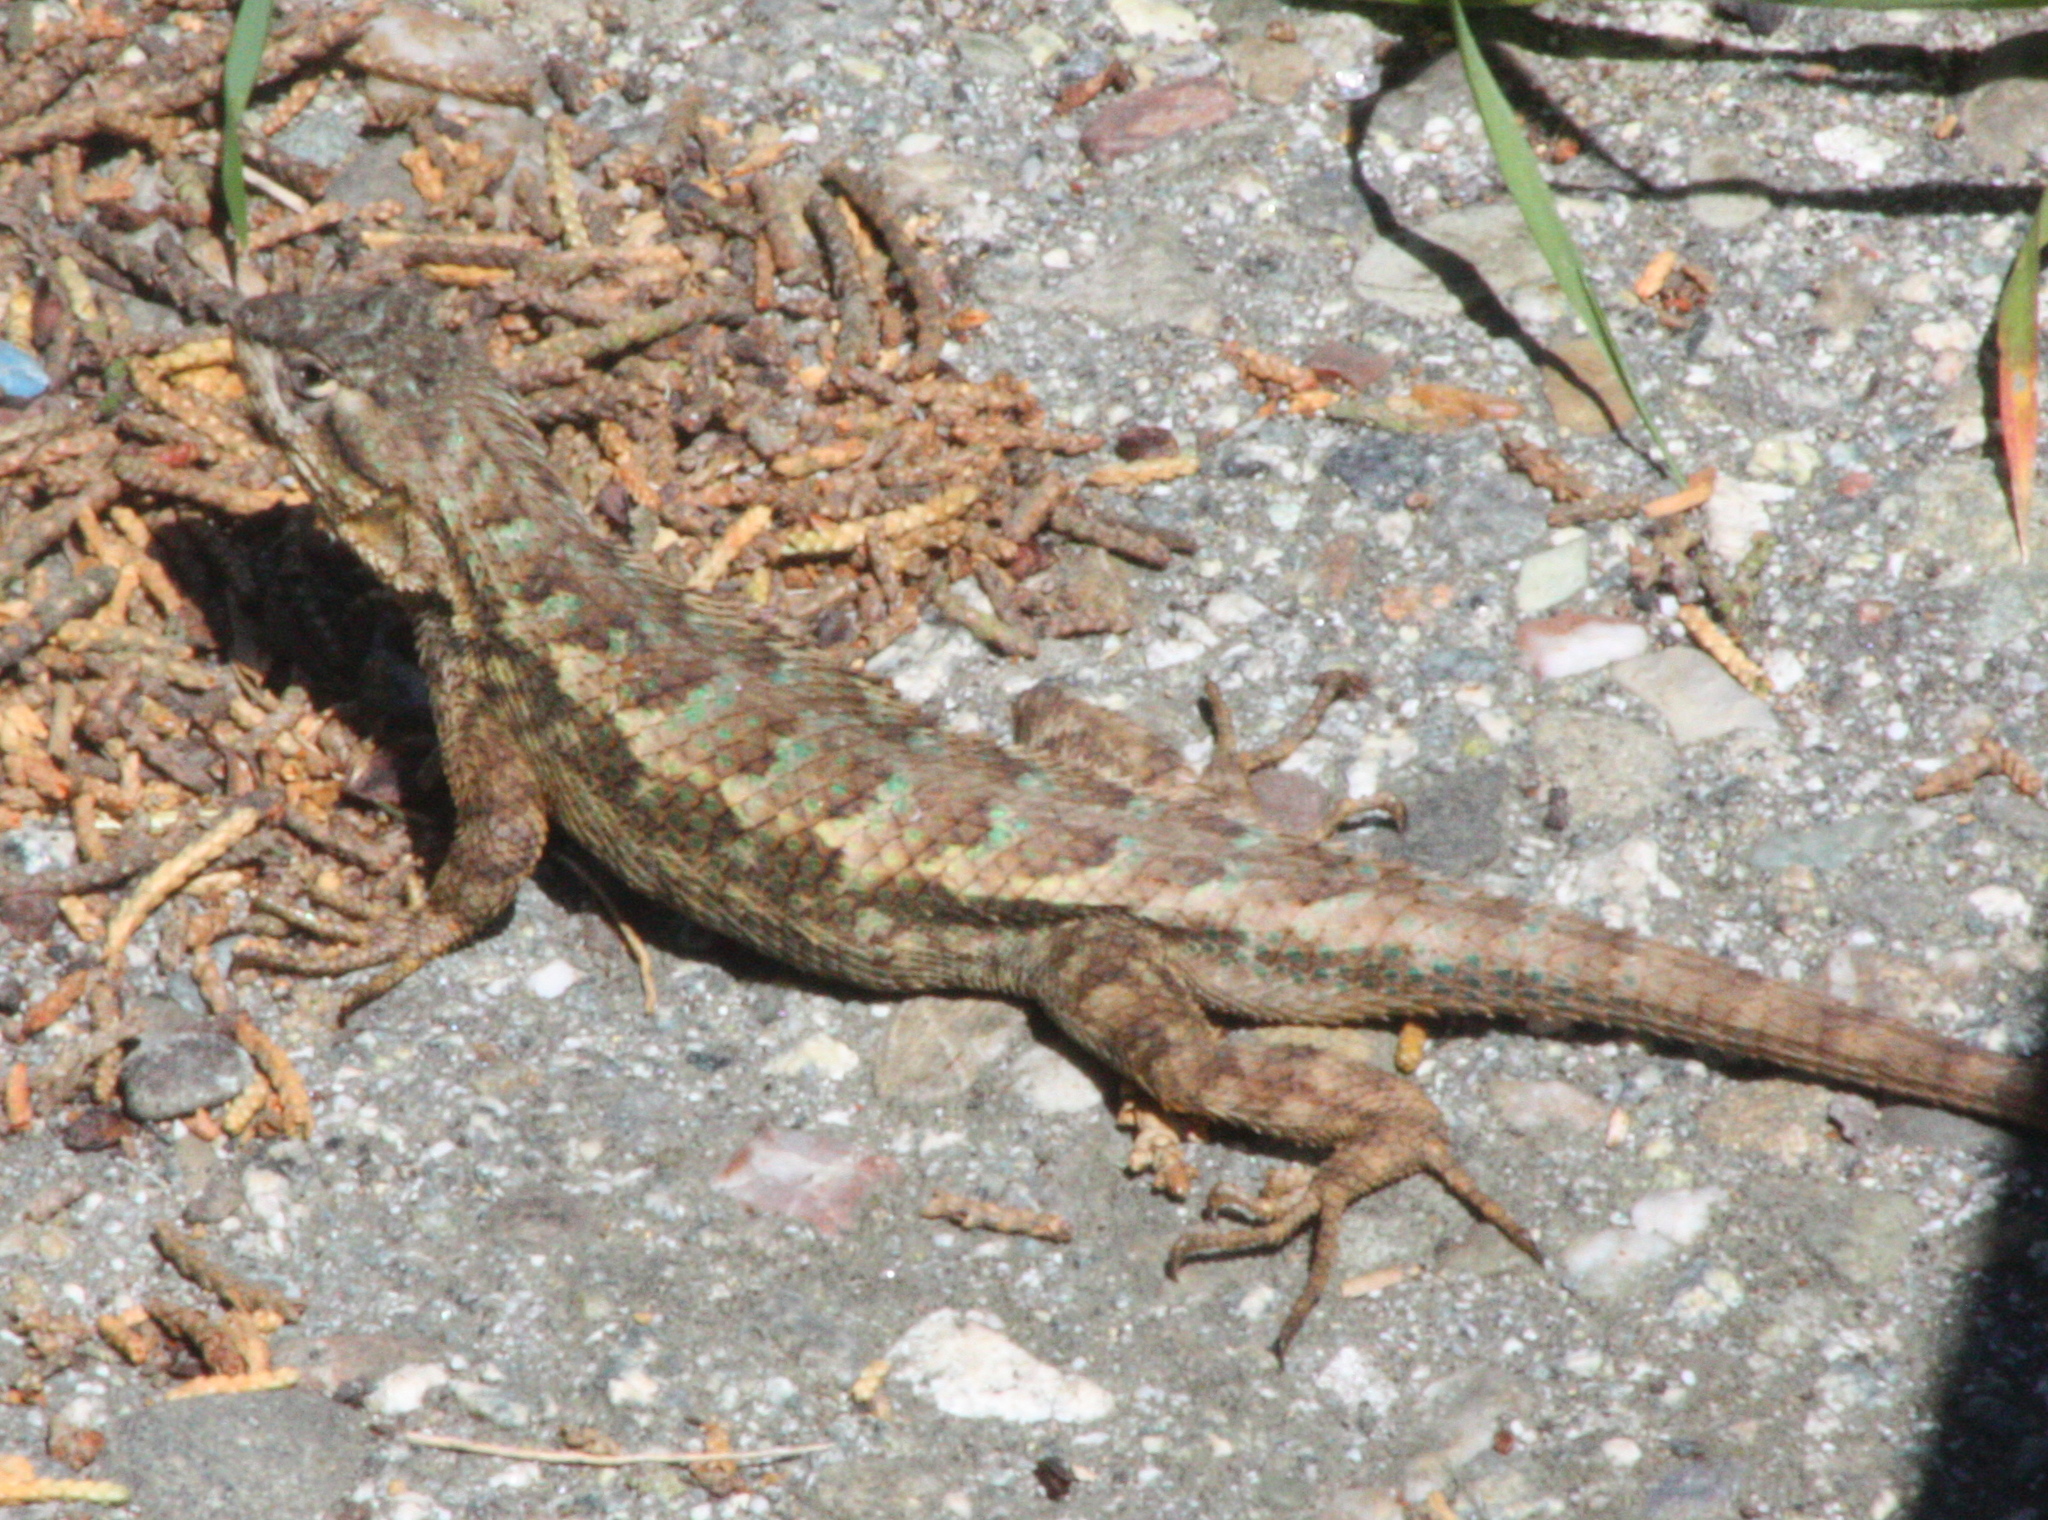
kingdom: Animalia
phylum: Chordata
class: Squamata
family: Phrynosomatidae
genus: Sceloporus
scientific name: Sceloporus occidentalis
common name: Western fence lizard
